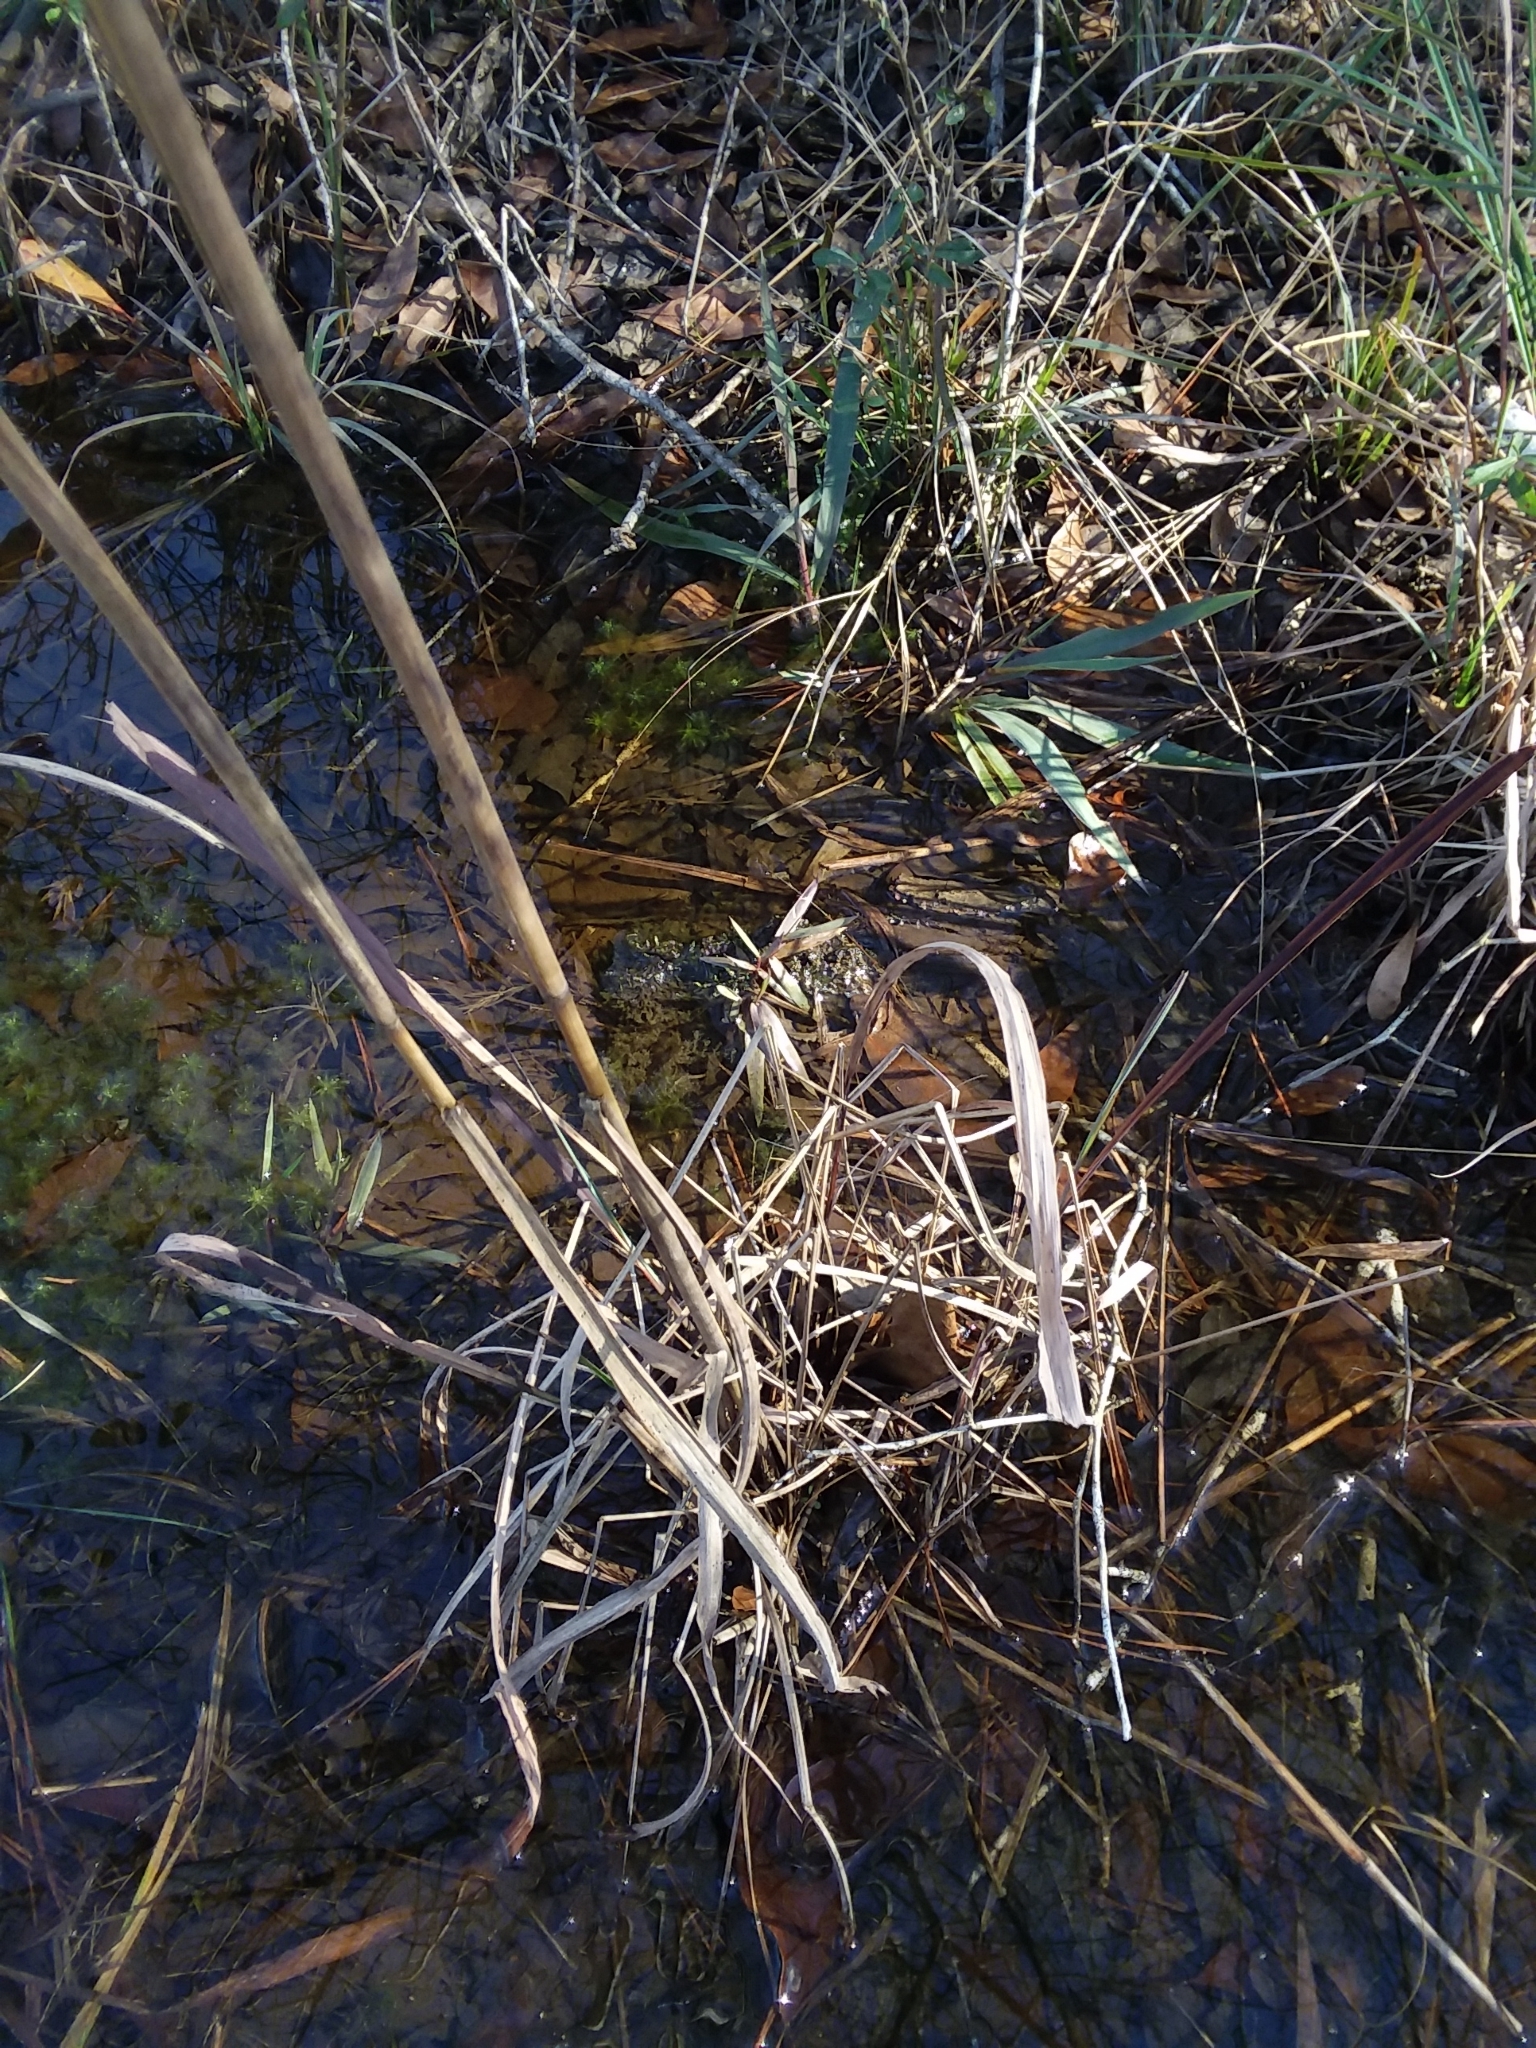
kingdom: Plantae
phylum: Tracheophyta
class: Liliopsida
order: Poales
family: Poaceae
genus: Erianthus
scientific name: Erianthus strictus
